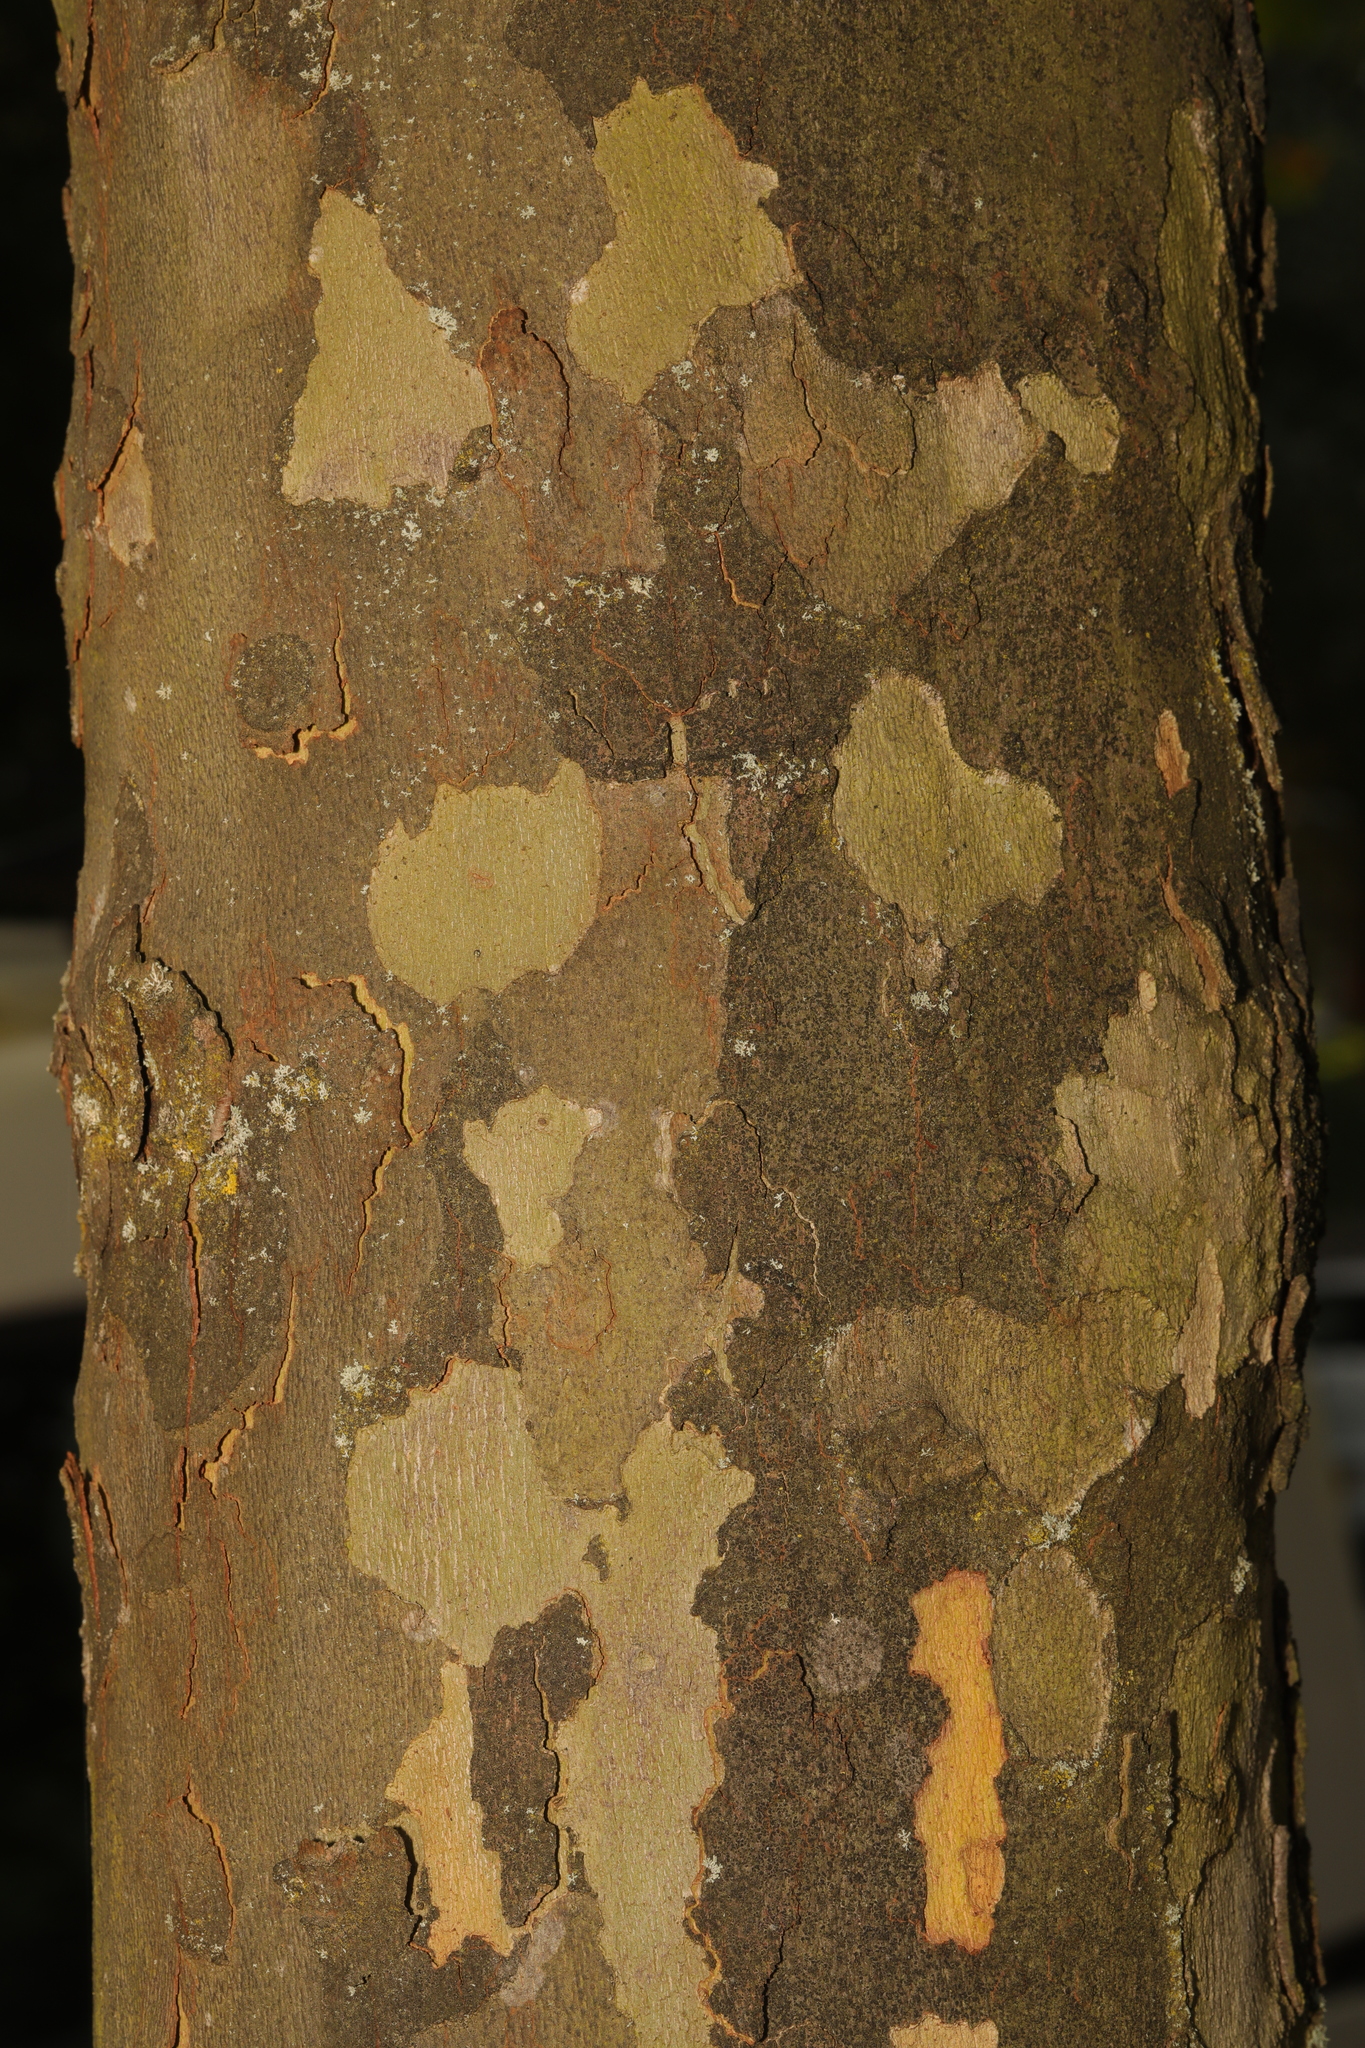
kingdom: Plantae
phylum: Tracheophyta
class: Magnoliopsida
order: Proteales
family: Platanaceae
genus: Platanus
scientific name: Platanus hispanica
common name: London plane
